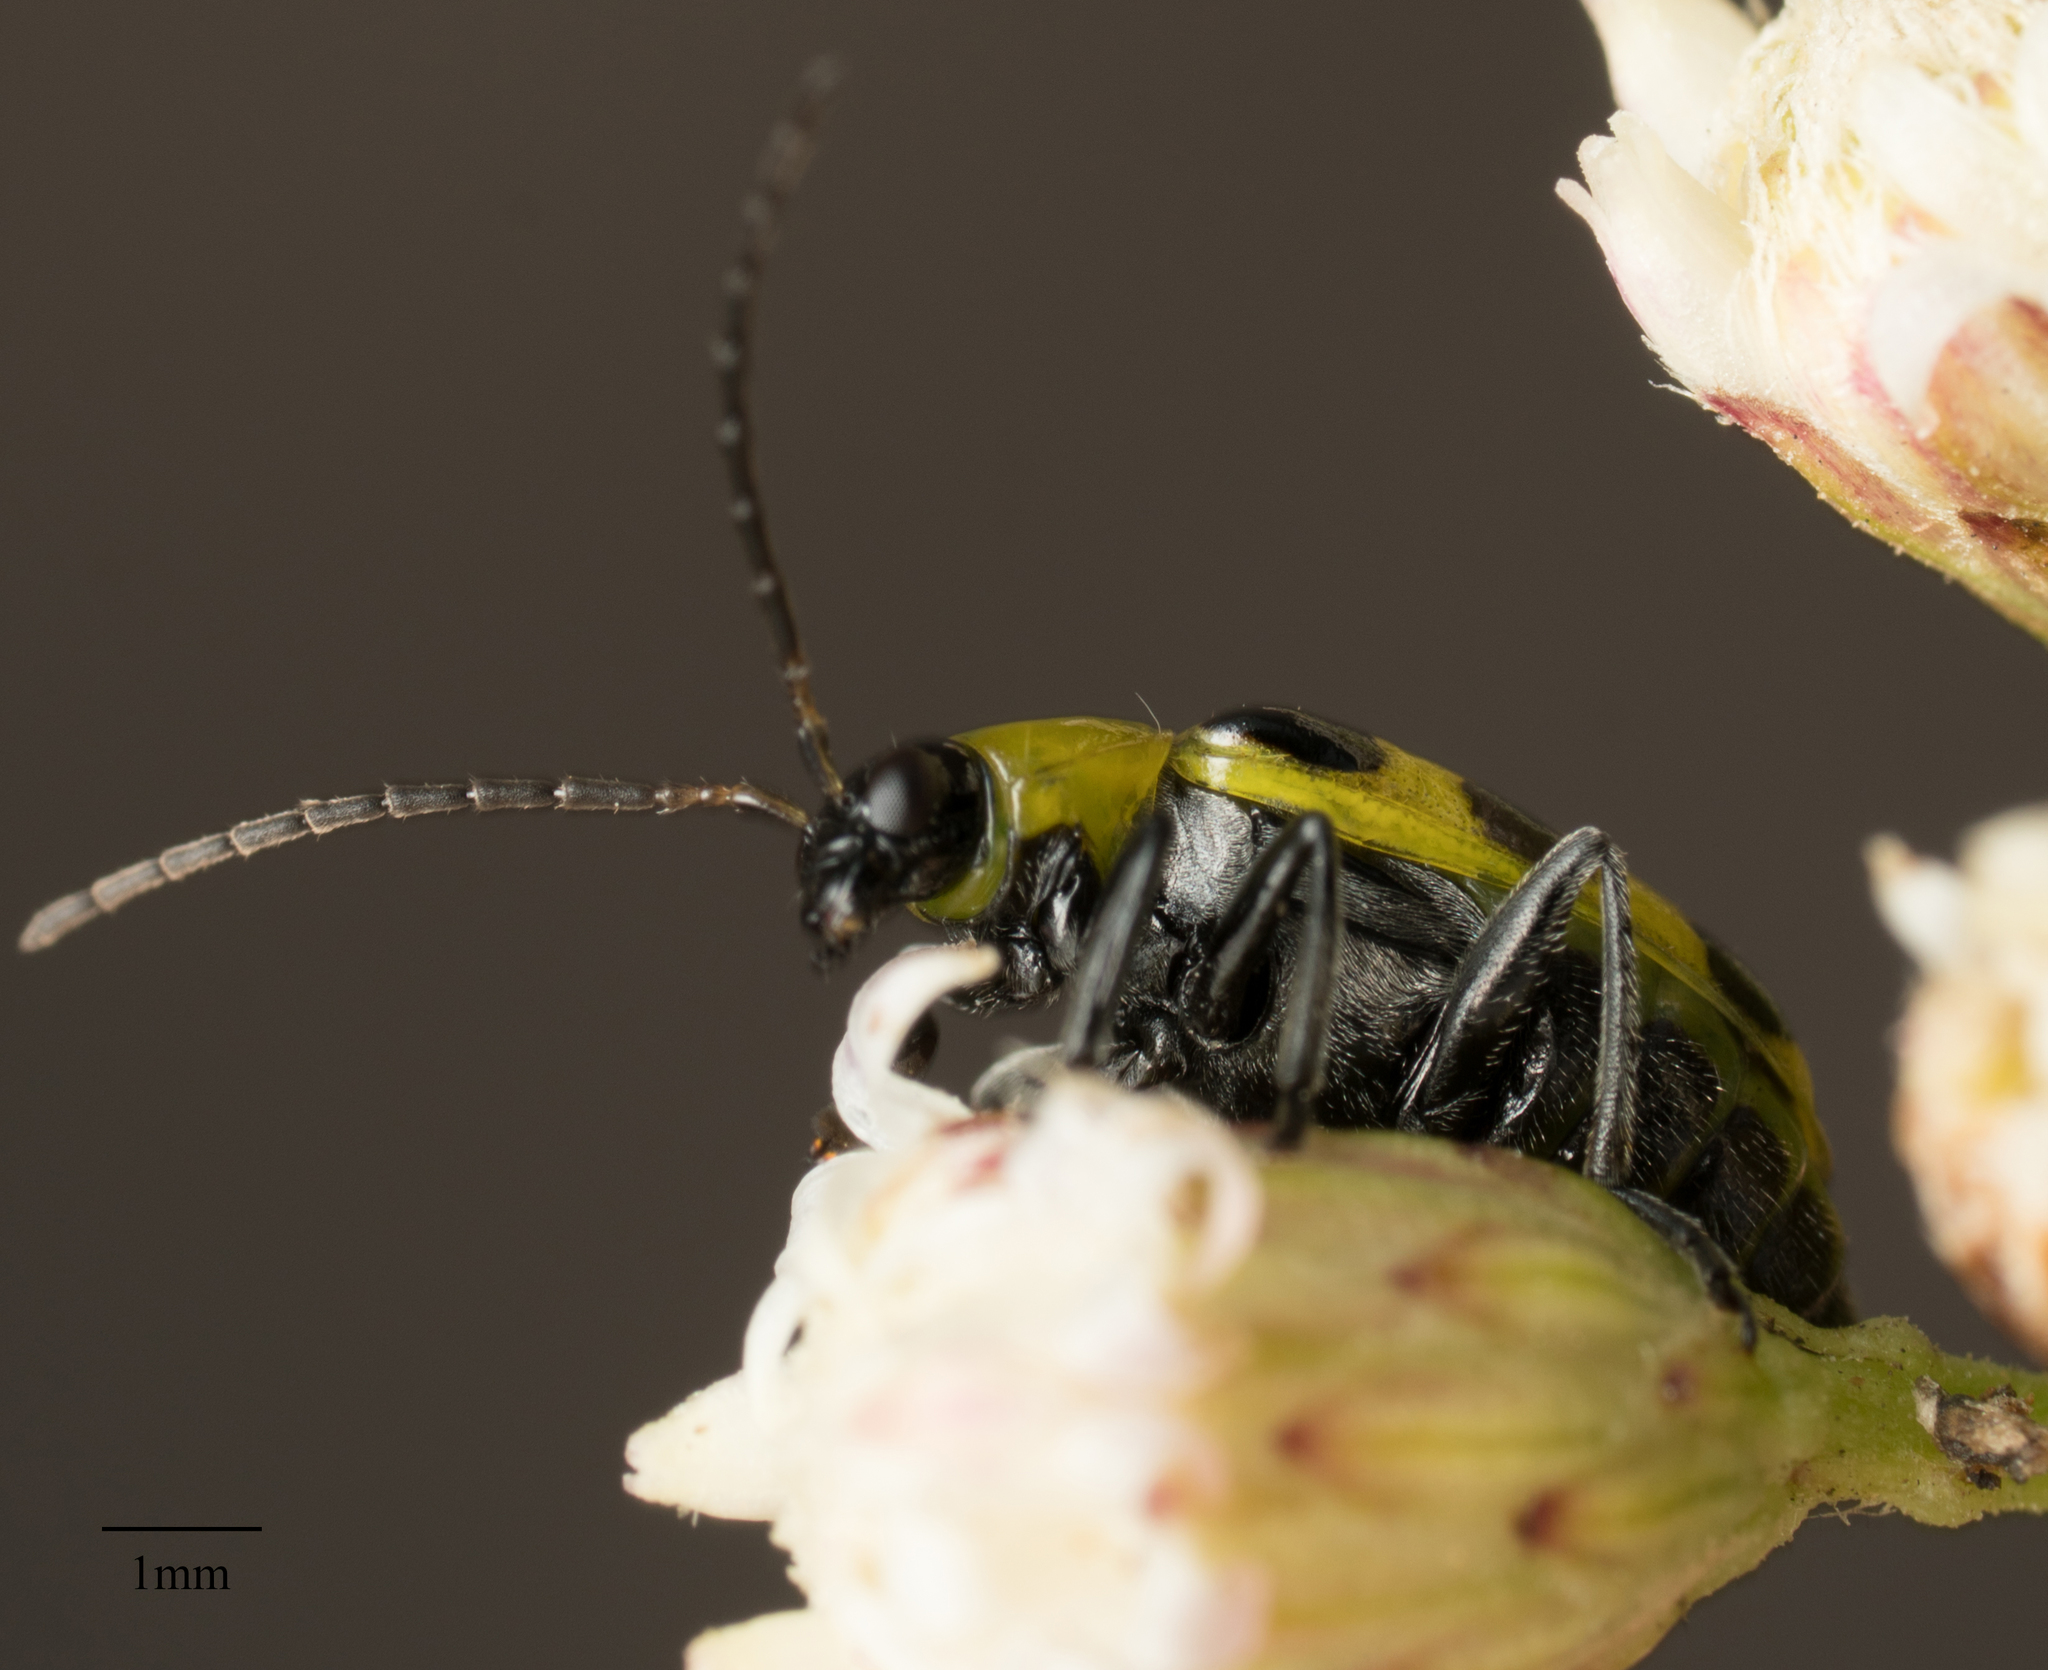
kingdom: Animalia
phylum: Arthropoda
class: Insecta
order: Coleoptera
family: Chrysomelidae
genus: Diabrotica
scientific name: Diabrotica undecimpunctata
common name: Spotted cucumber beetle
